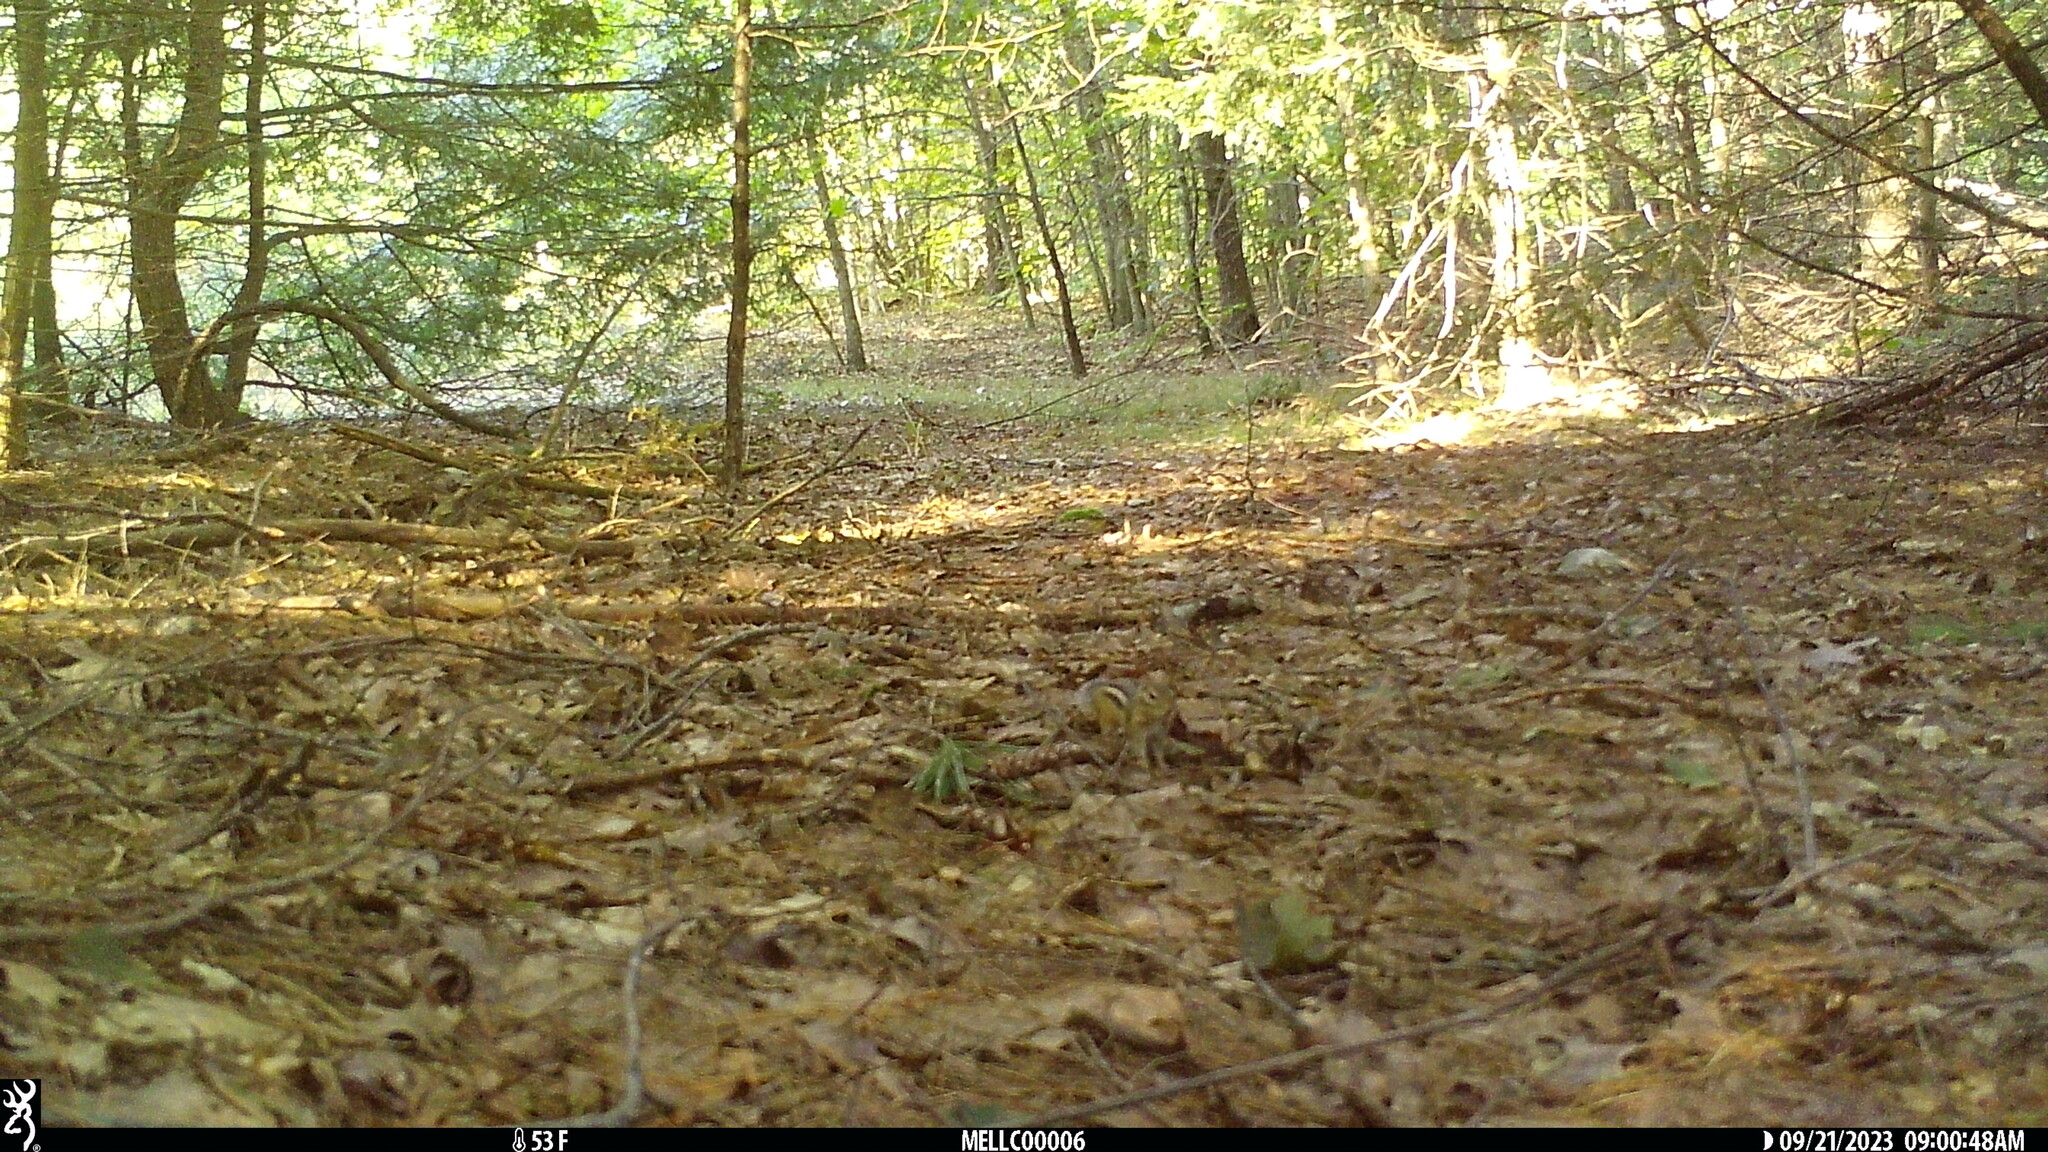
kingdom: Animalia
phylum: Chordata
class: Mammalia
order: Rodentia
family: Sciuridae
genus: Tamias
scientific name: Tamias striatus
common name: Eastern chipmunk
